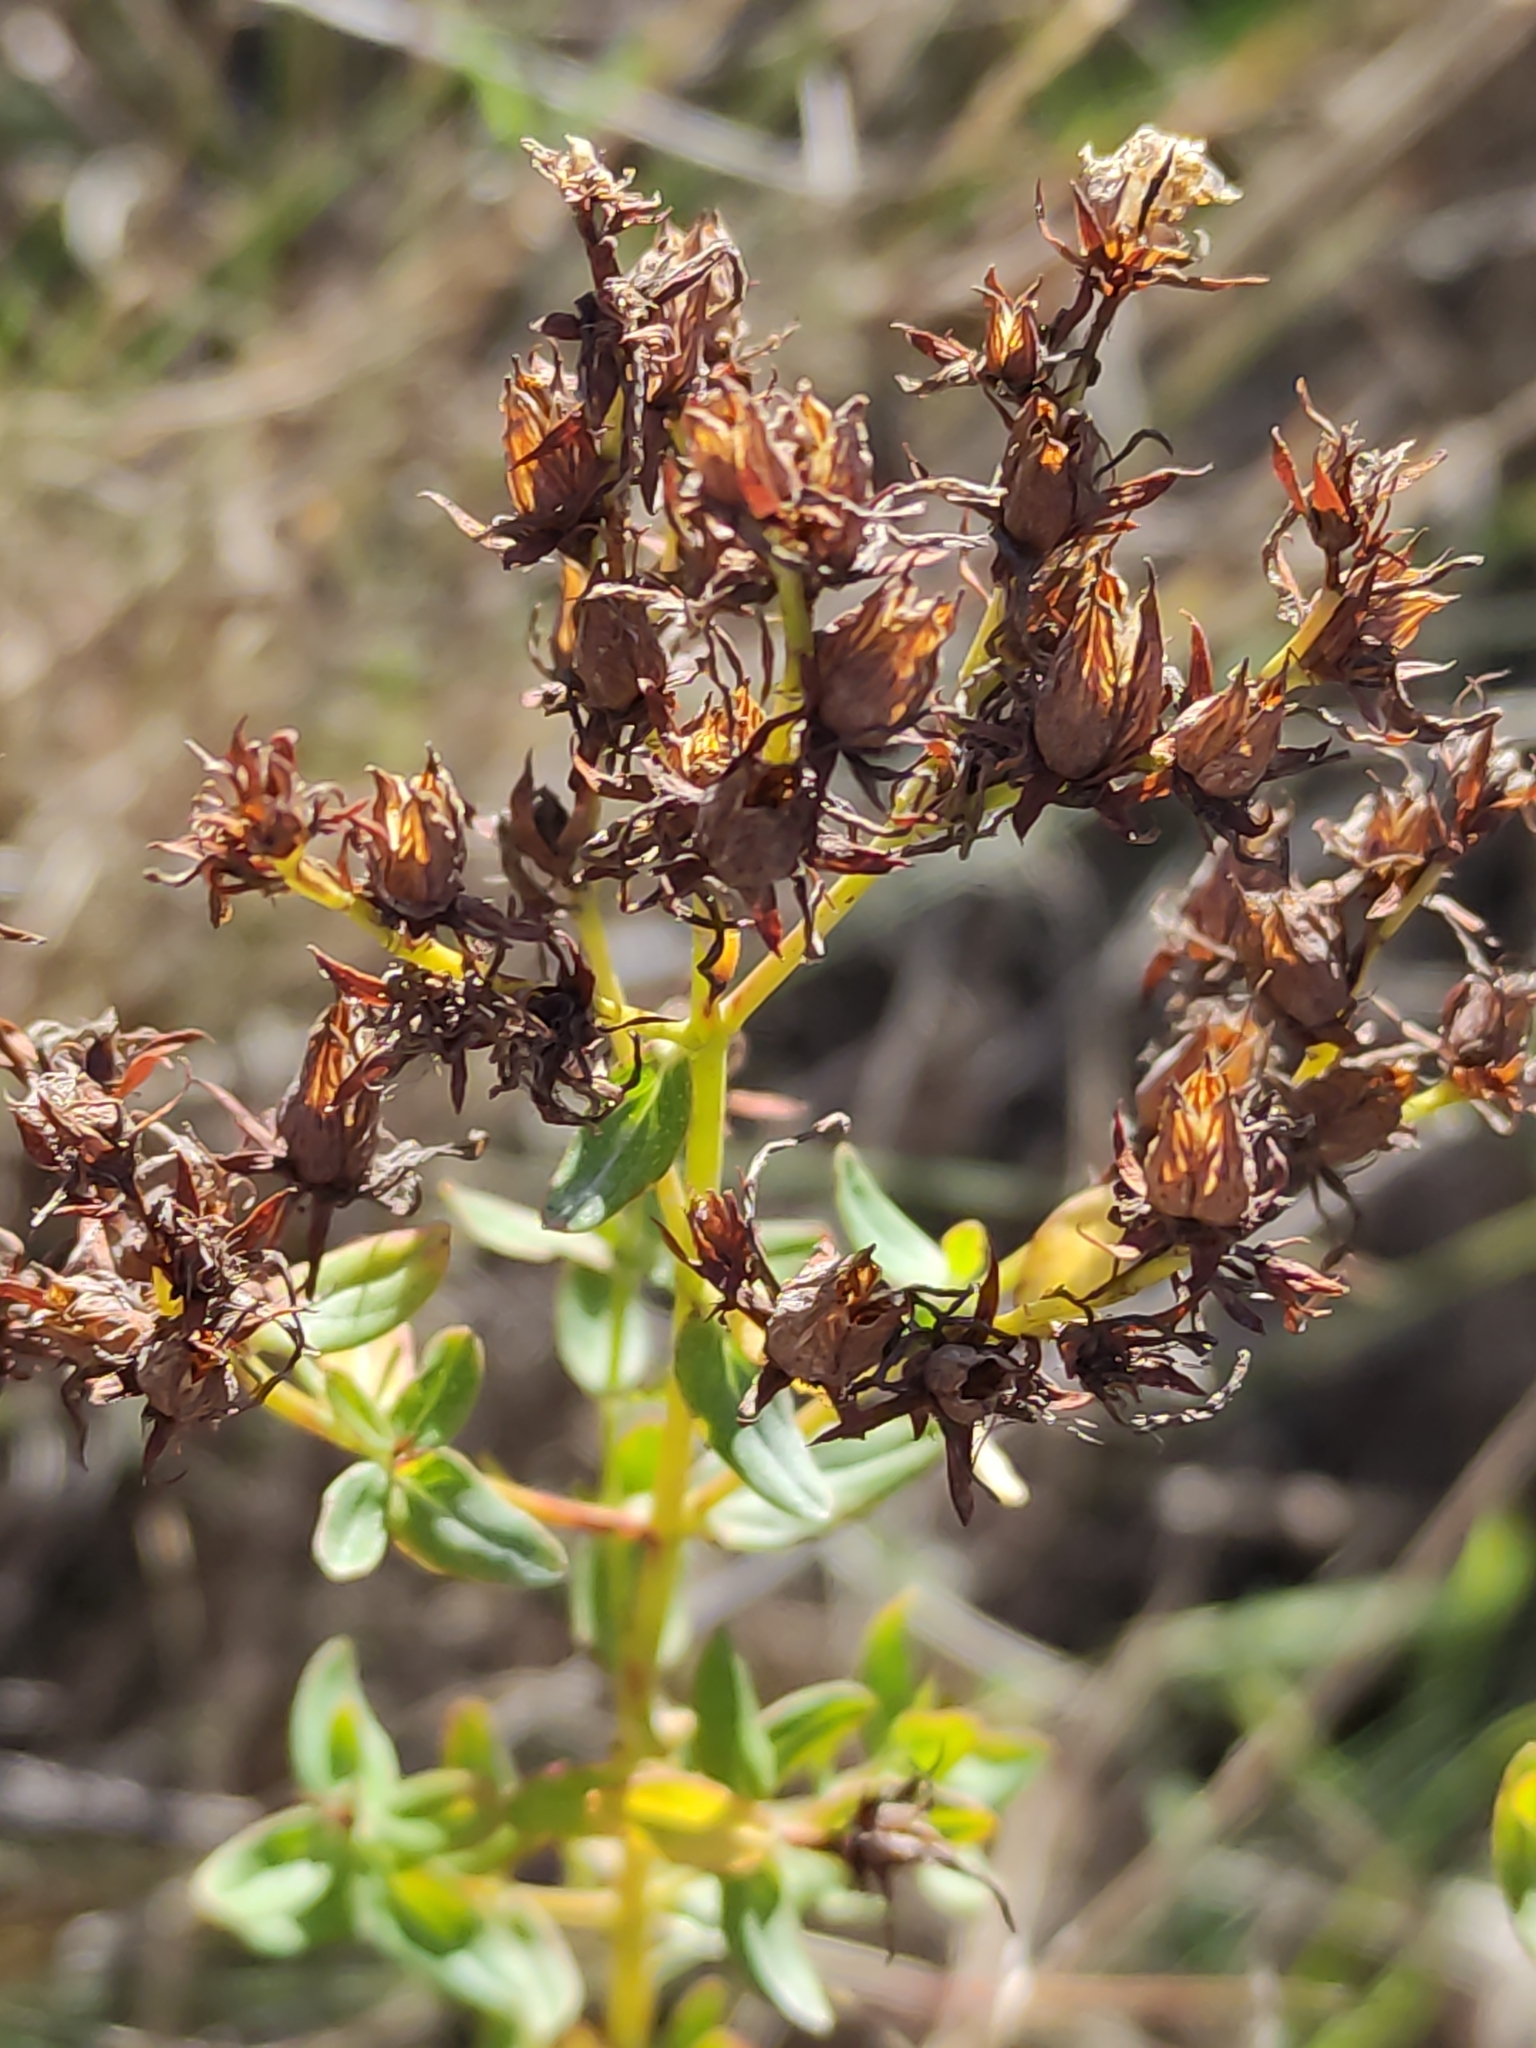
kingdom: Plantae
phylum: Tracheophyta
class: Magnoliopsida
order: Malpighiales
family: Hypericaceae
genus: Hypericum
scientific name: Hypericum perforatum
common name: Common st. johnswort
